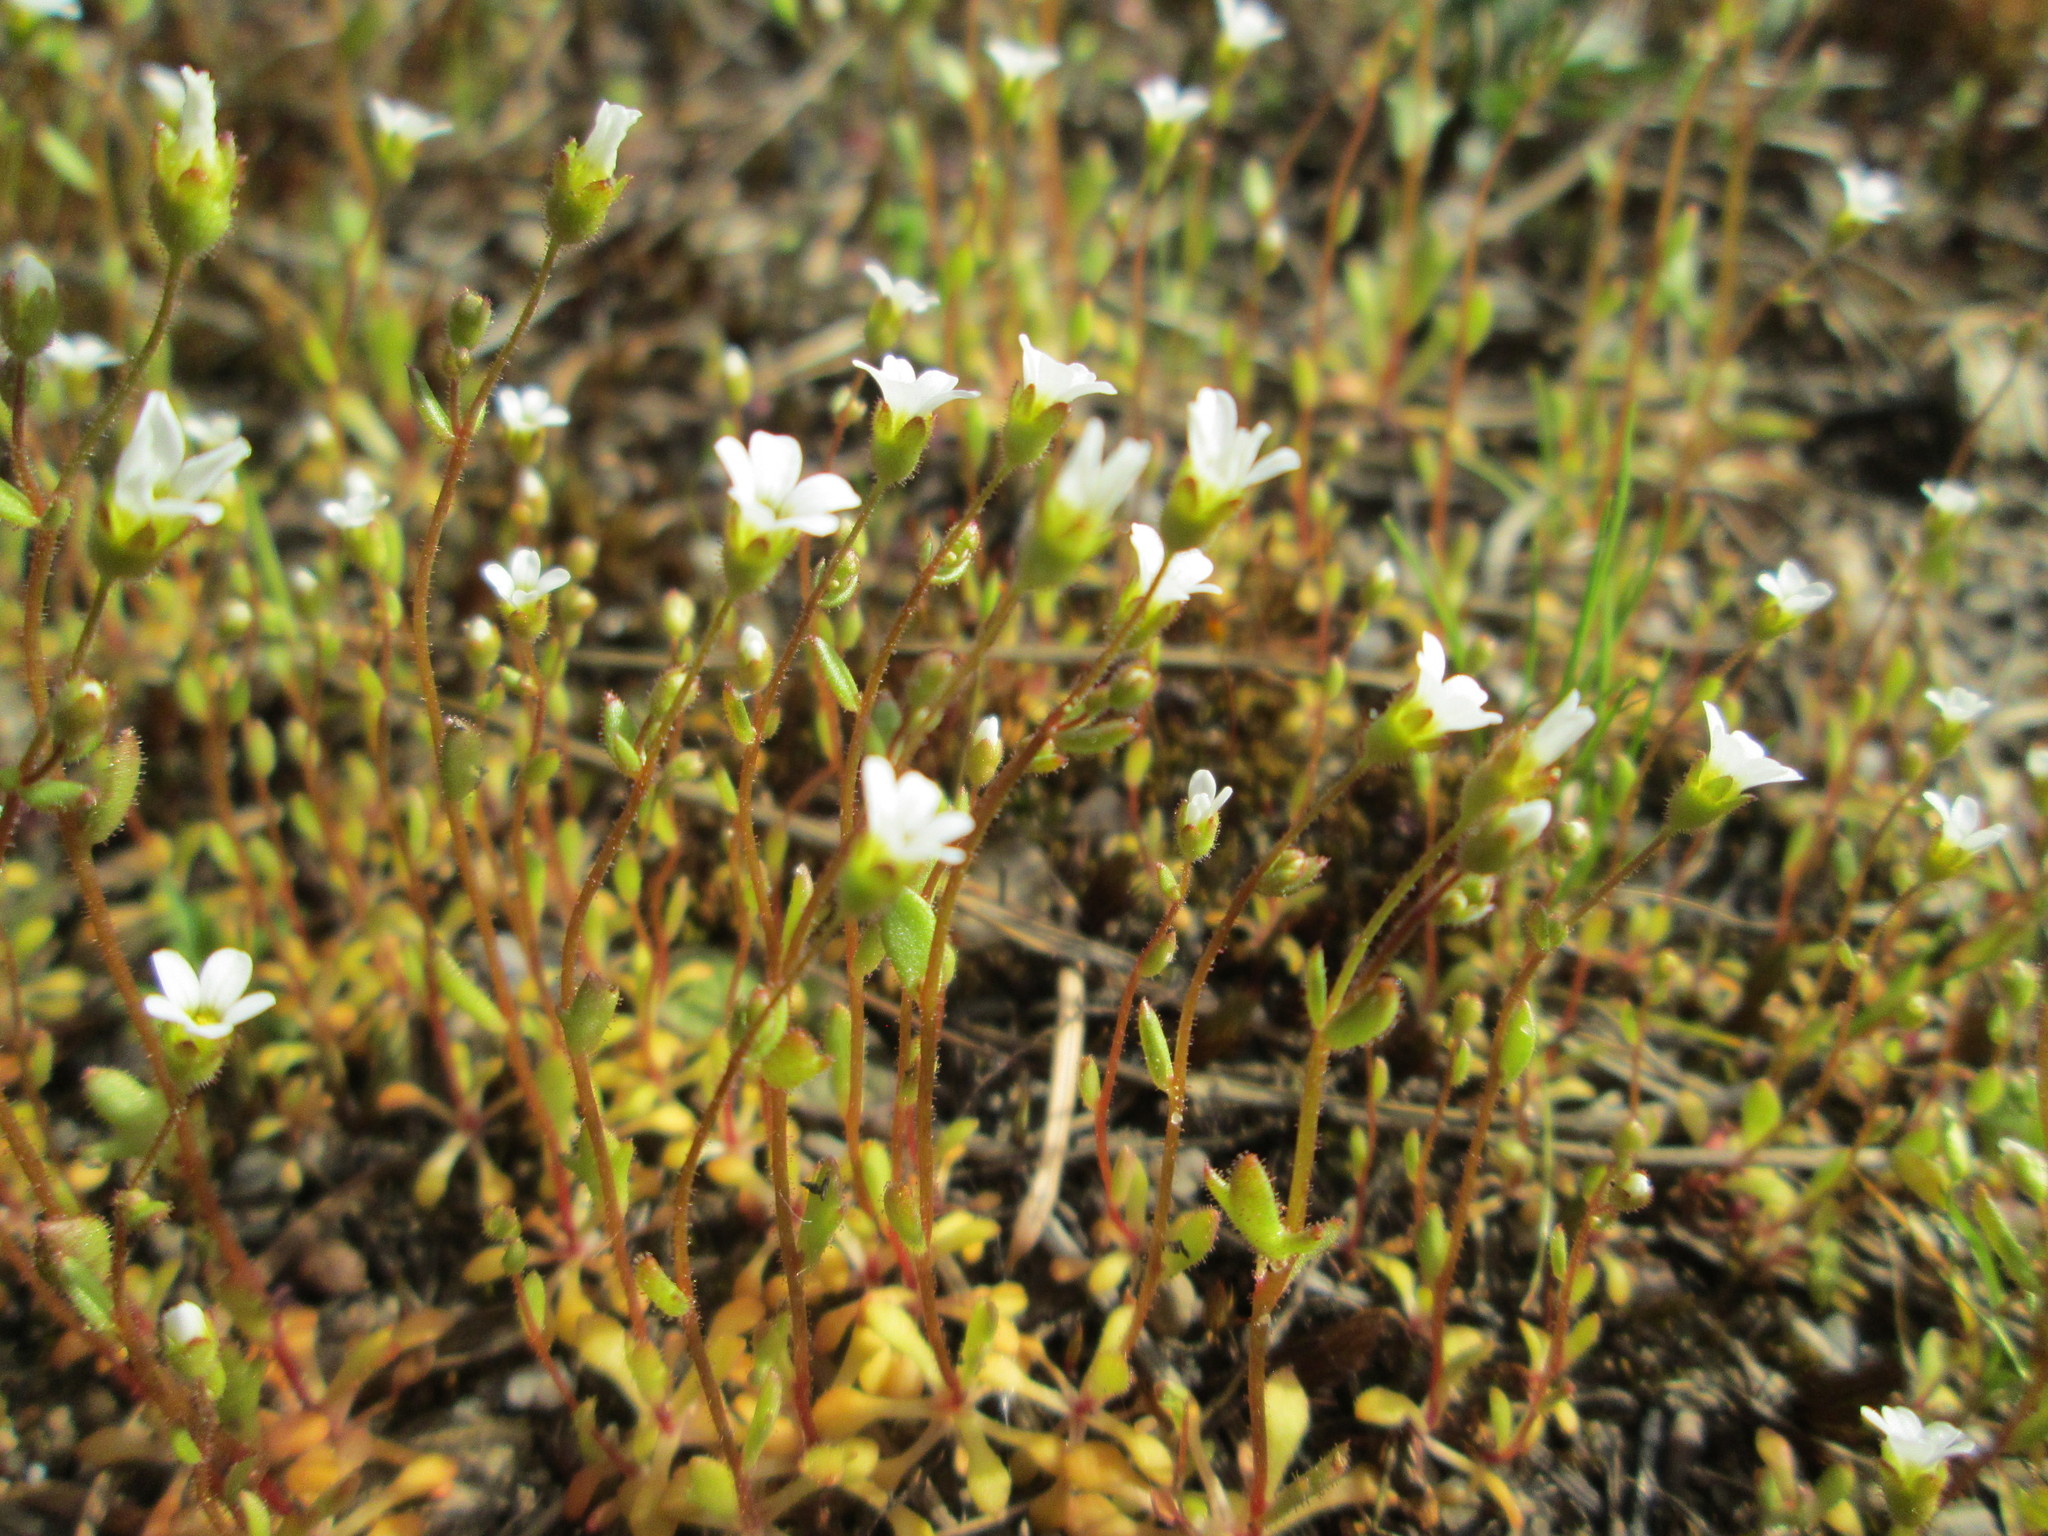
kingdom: Plantae
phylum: Tracheophyta
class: Magnoliopsida
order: Saxifragales
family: Saxifragaceae
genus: Saxifraga
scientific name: Saxifraga tridactylites
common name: Rue-leaved saxifrage
